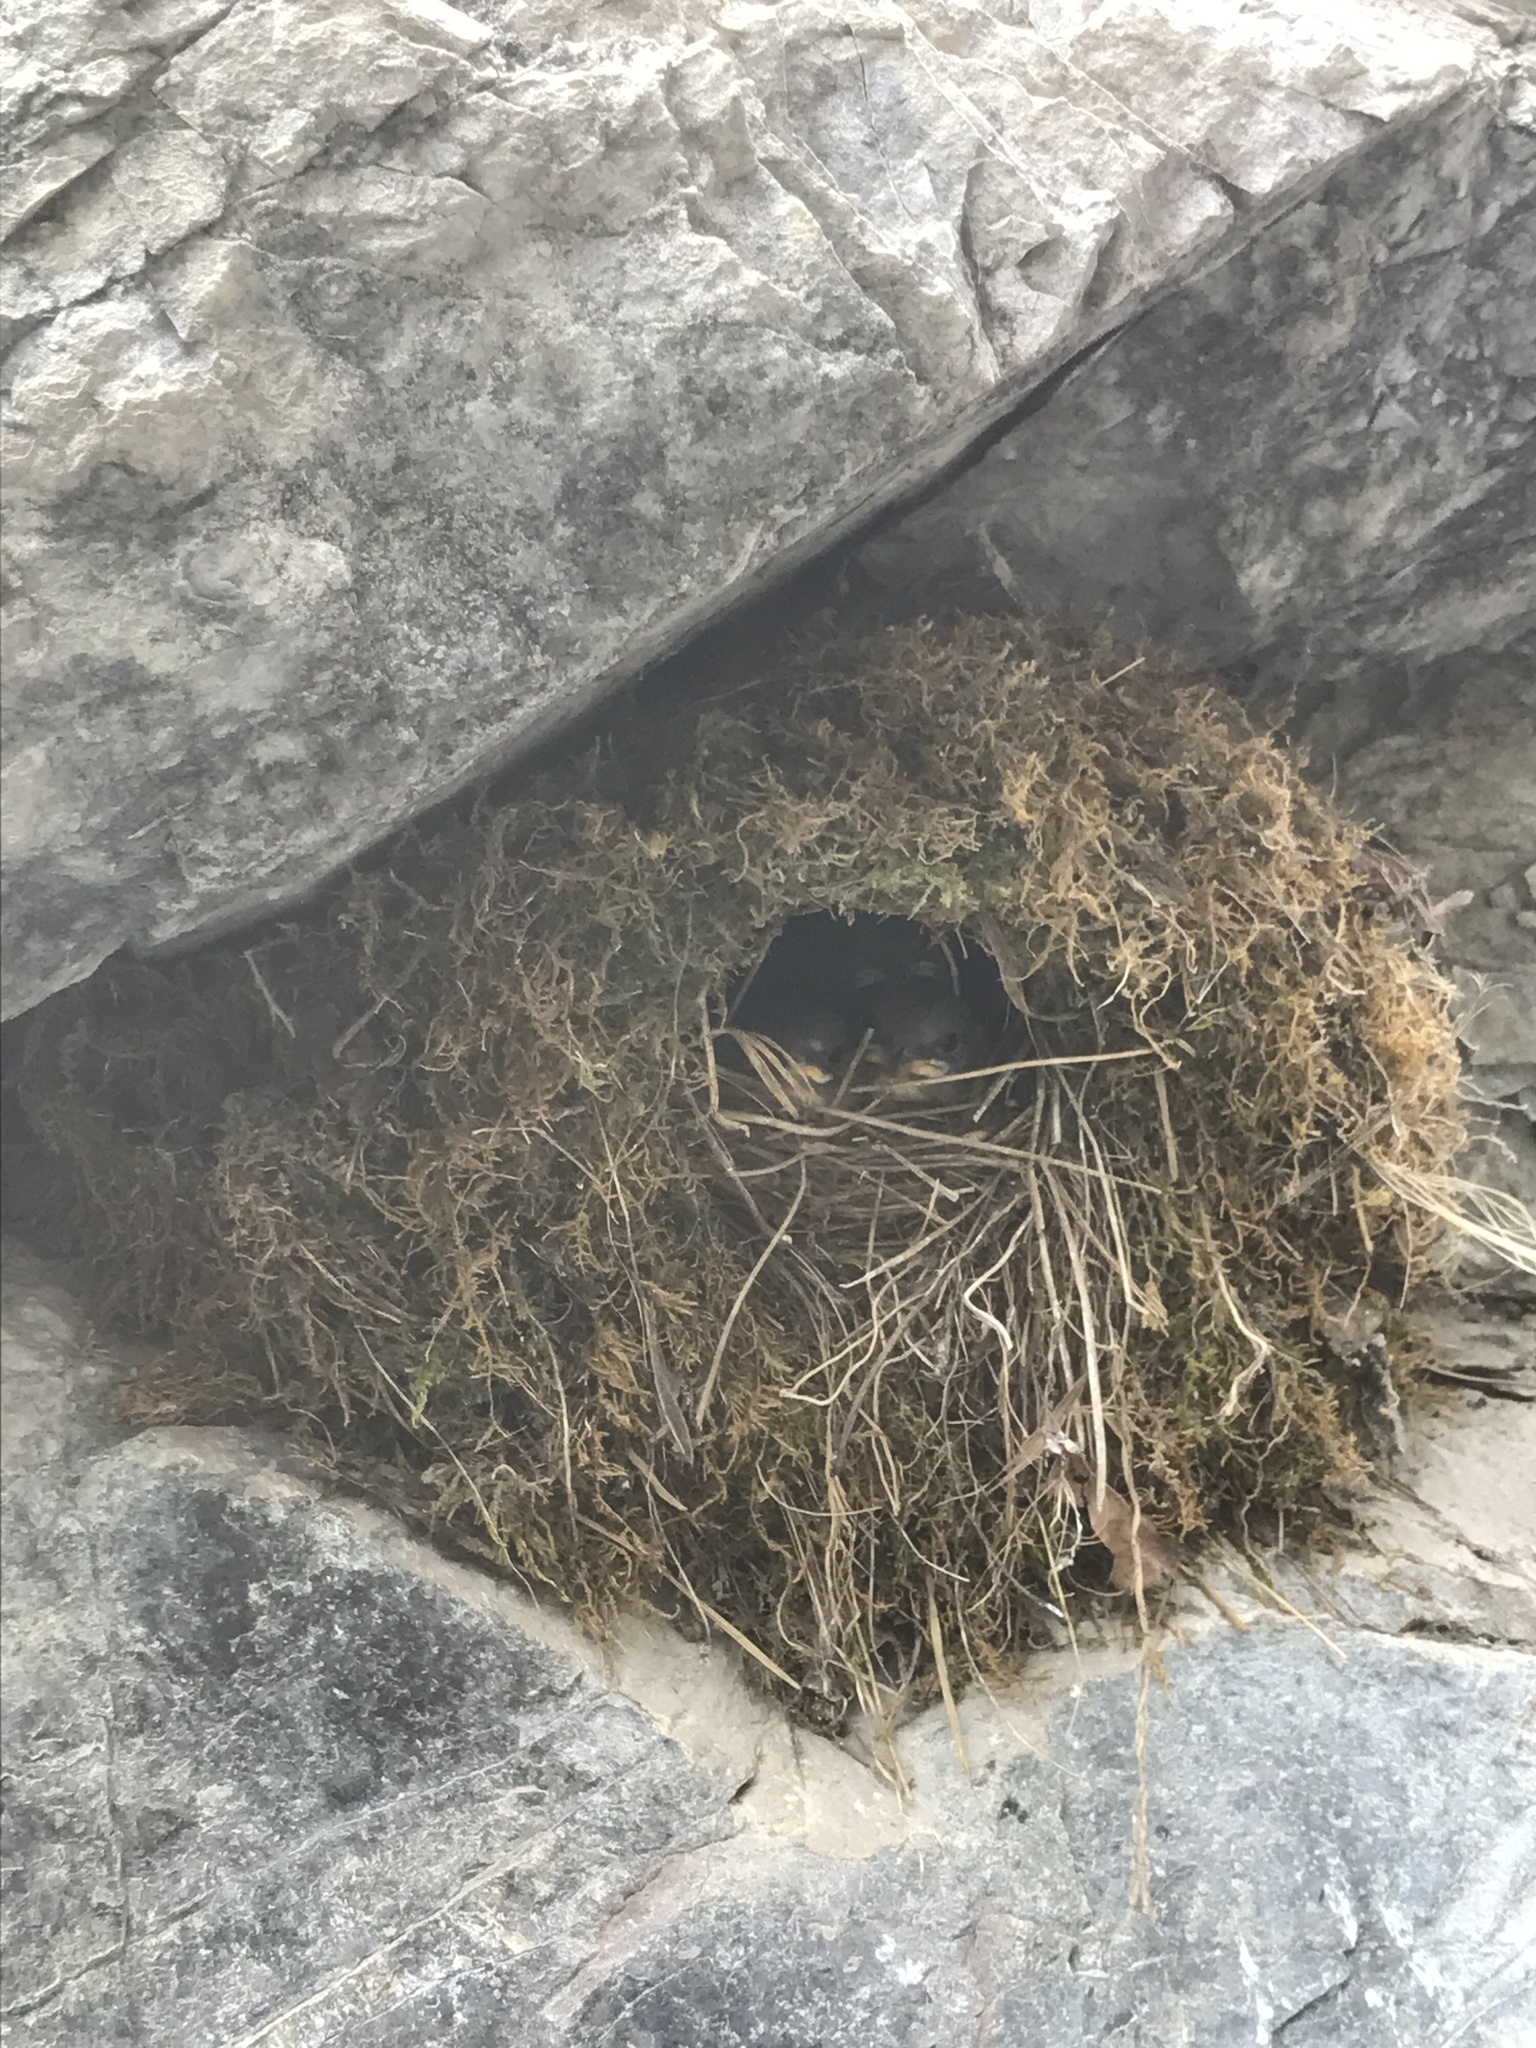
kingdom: Animalia
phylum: Chordata
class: Aves
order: Passeriformes
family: Cinclidae
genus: Cinclus
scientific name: Cinclus mexicanus
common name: American dipper
